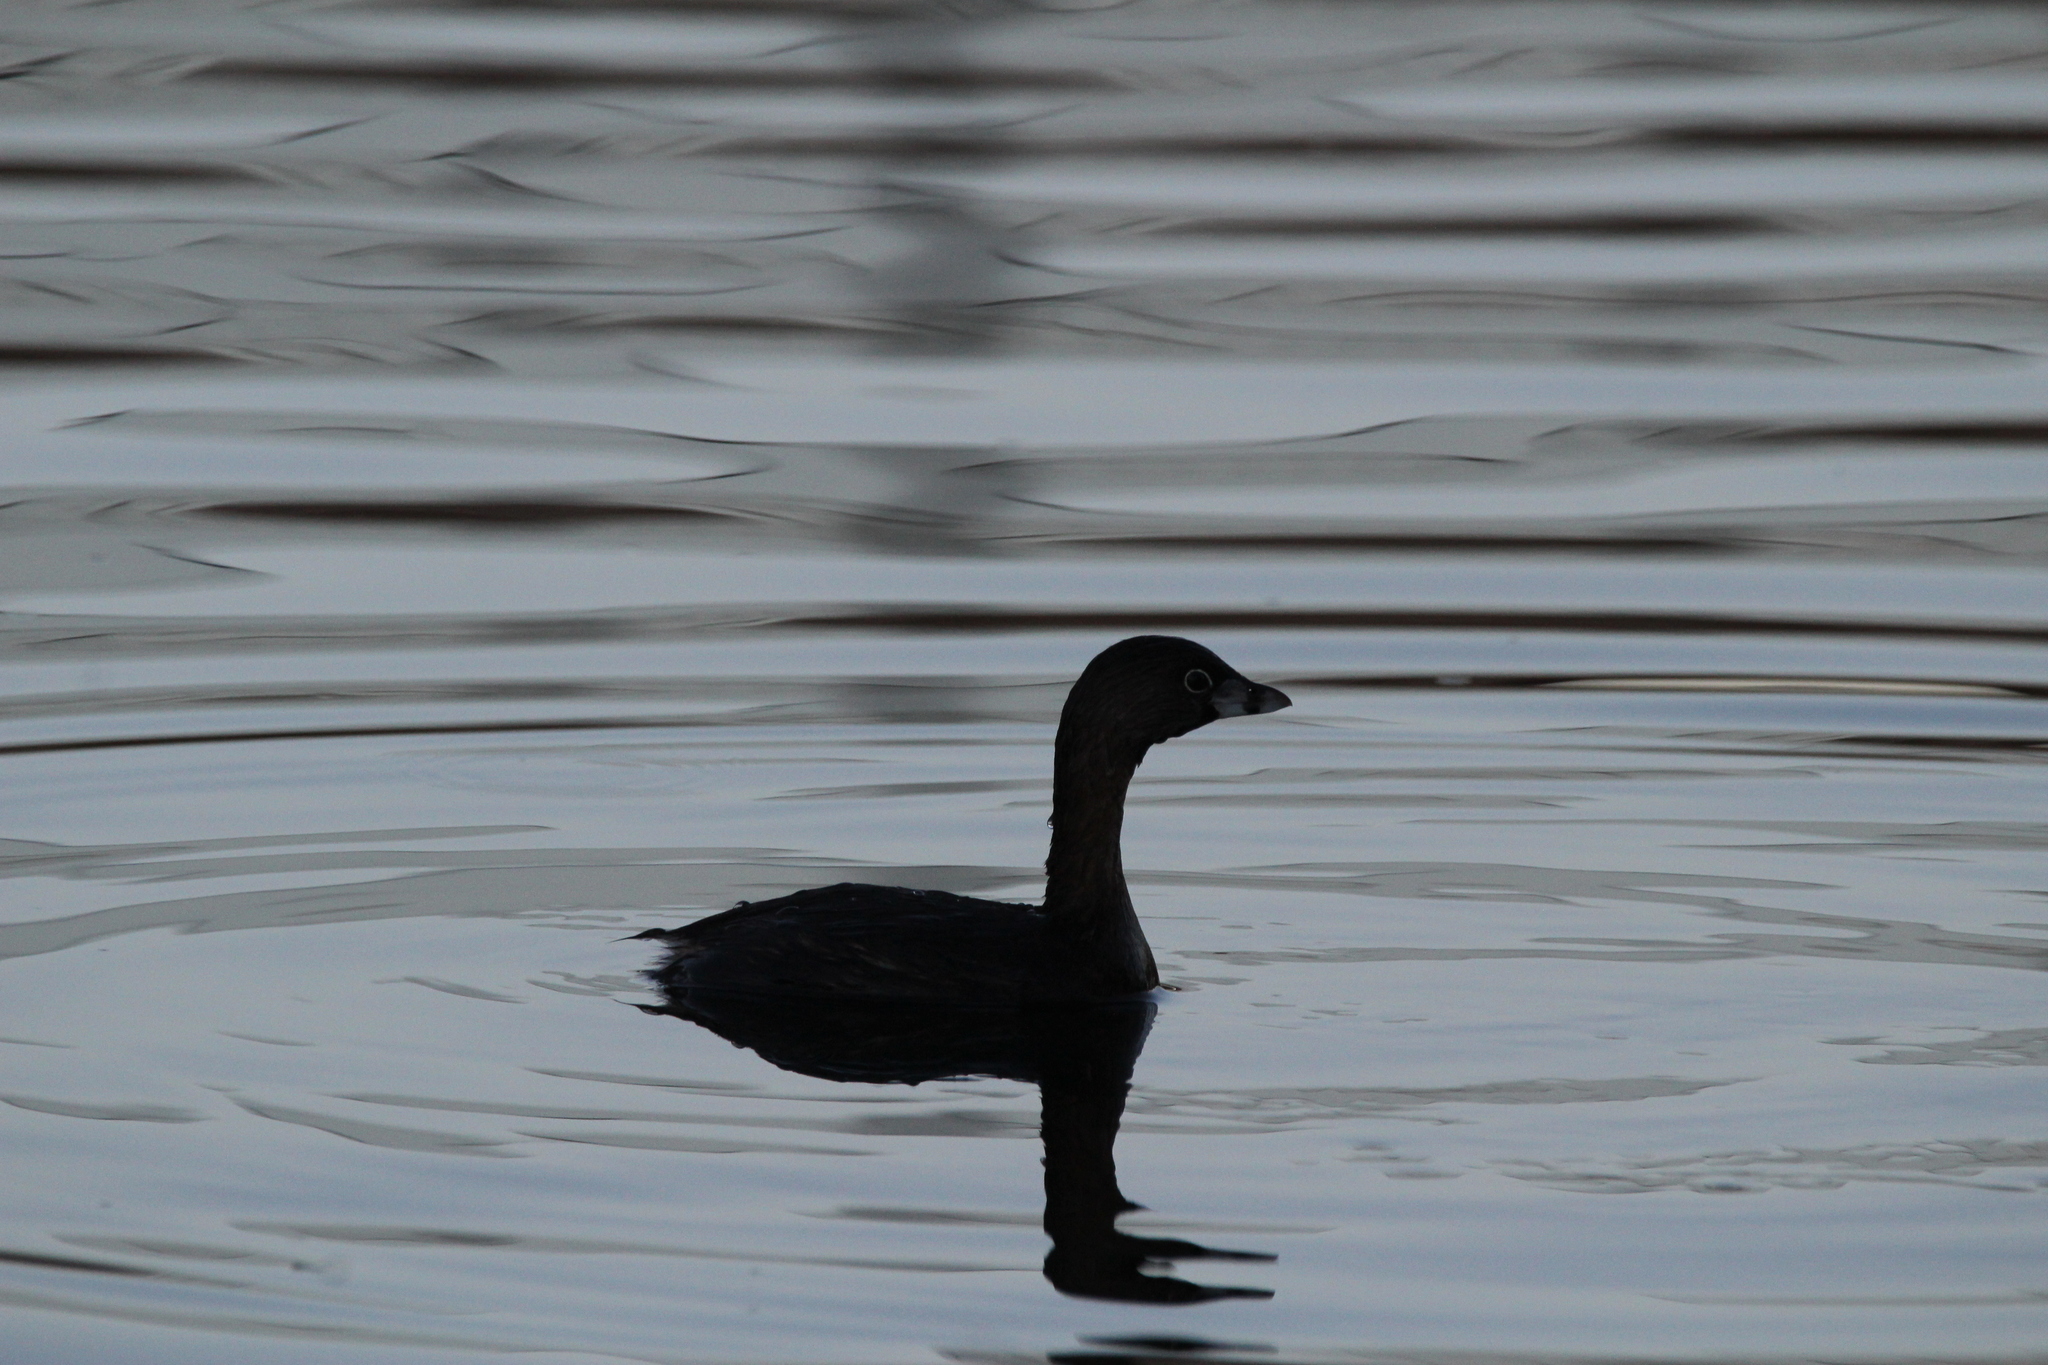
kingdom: Animalia
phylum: Chordata
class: Aves
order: Podicipediformes
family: Podicipedidae
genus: Podilymbus
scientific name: Podilymbus podiceps
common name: Pied-billed grebe
